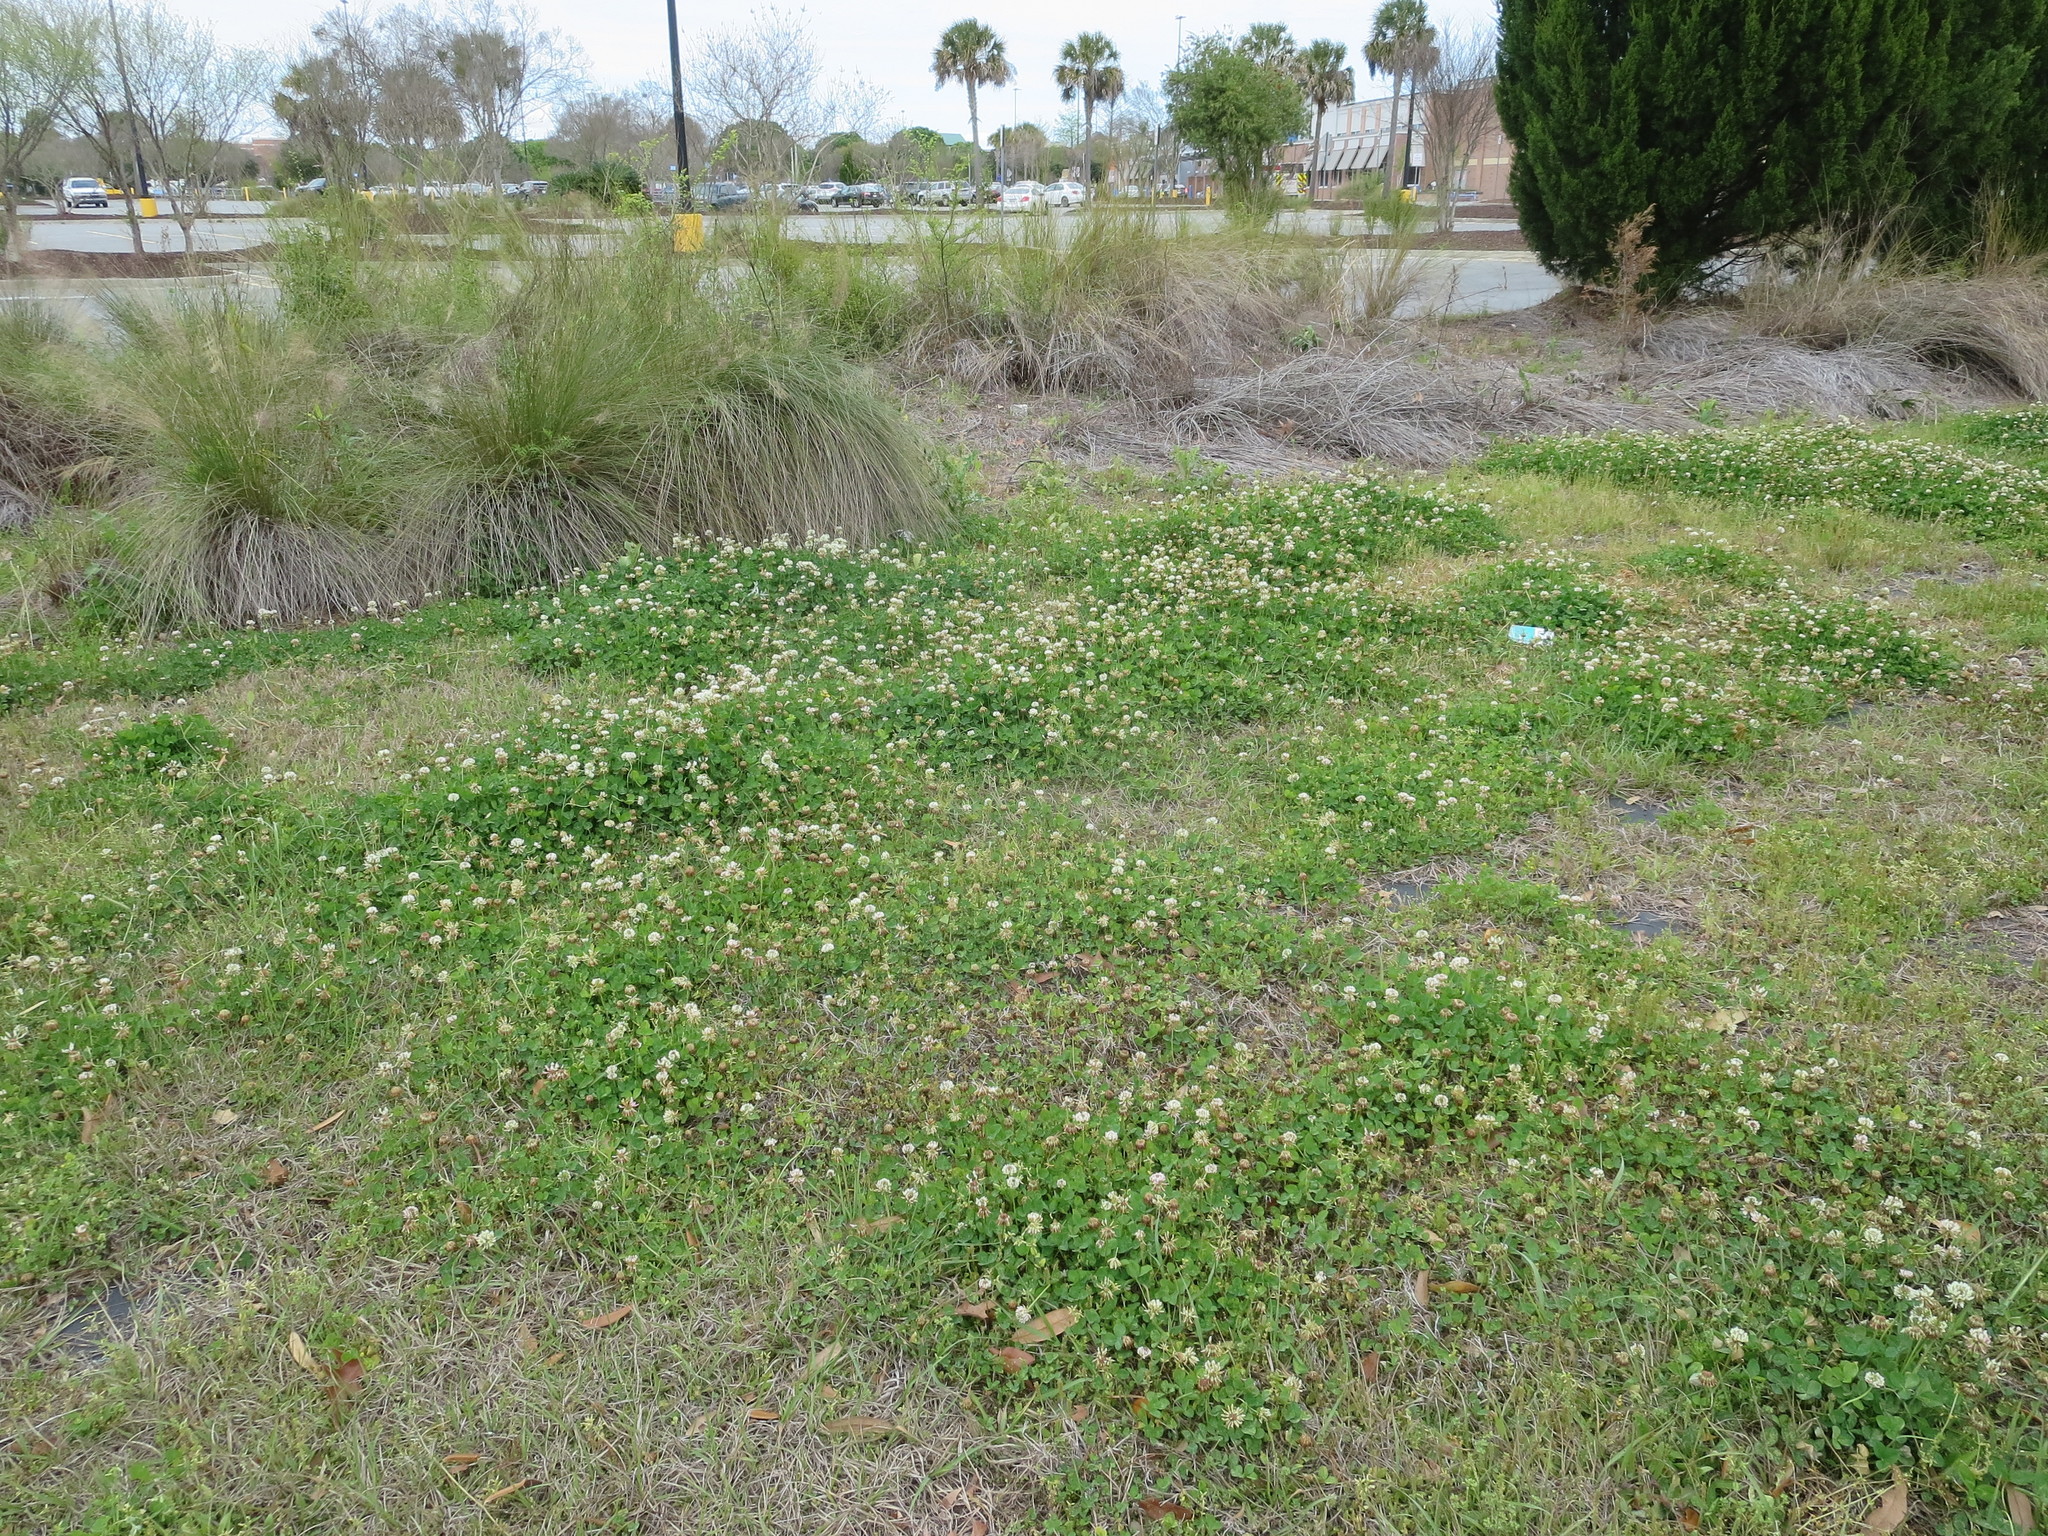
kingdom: Plantae
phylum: Tracheophyta
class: Magnoliopsida
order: Fabales
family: Fabaceae
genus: Trifolium
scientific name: Trifolium repens
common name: White clover
